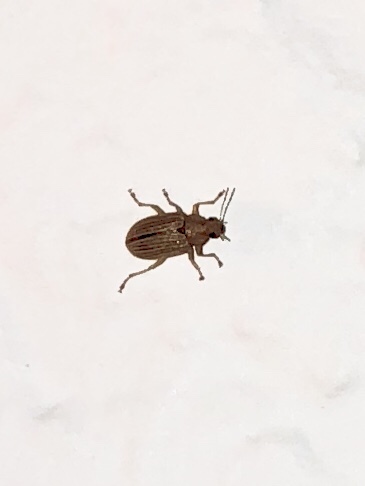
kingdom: Animalia
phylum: Arthropoda
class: Insecta
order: Coleoptera
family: Chrysomelidae
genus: Colaspis
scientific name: Colaspis hesperia
